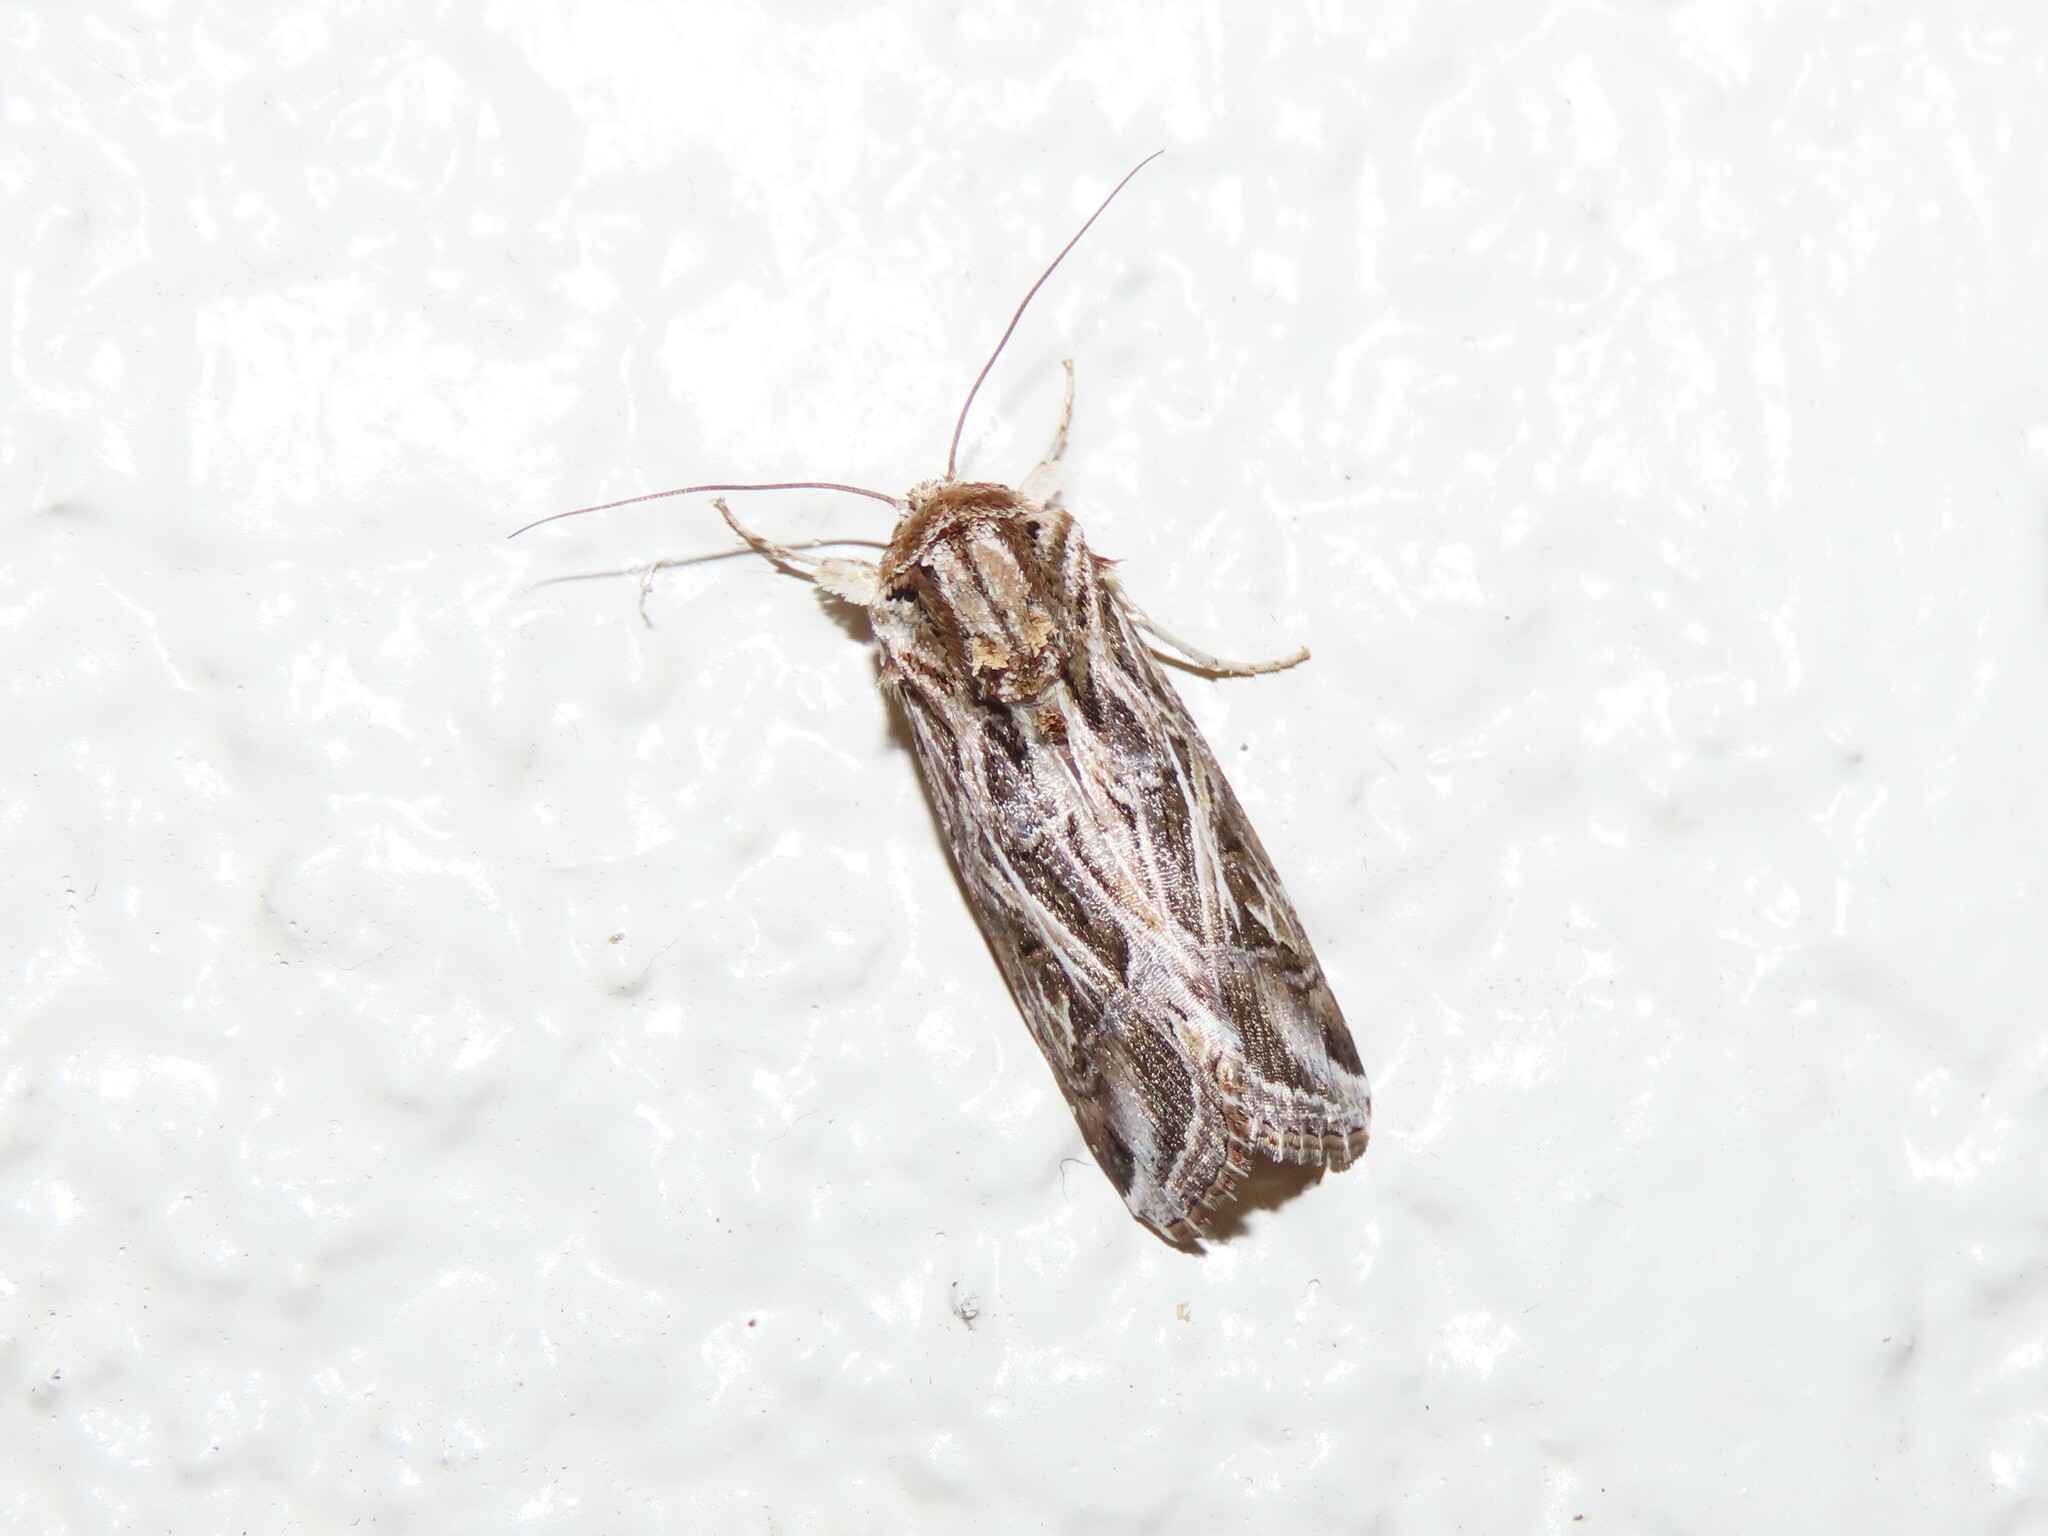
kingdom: Animalia
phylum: Arthropoda
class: Insecta
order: Lepidoptera
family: Noctuidae
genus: Spodoptera
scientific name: Spodoptera pulchella
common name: Caribbean armyworm moth
